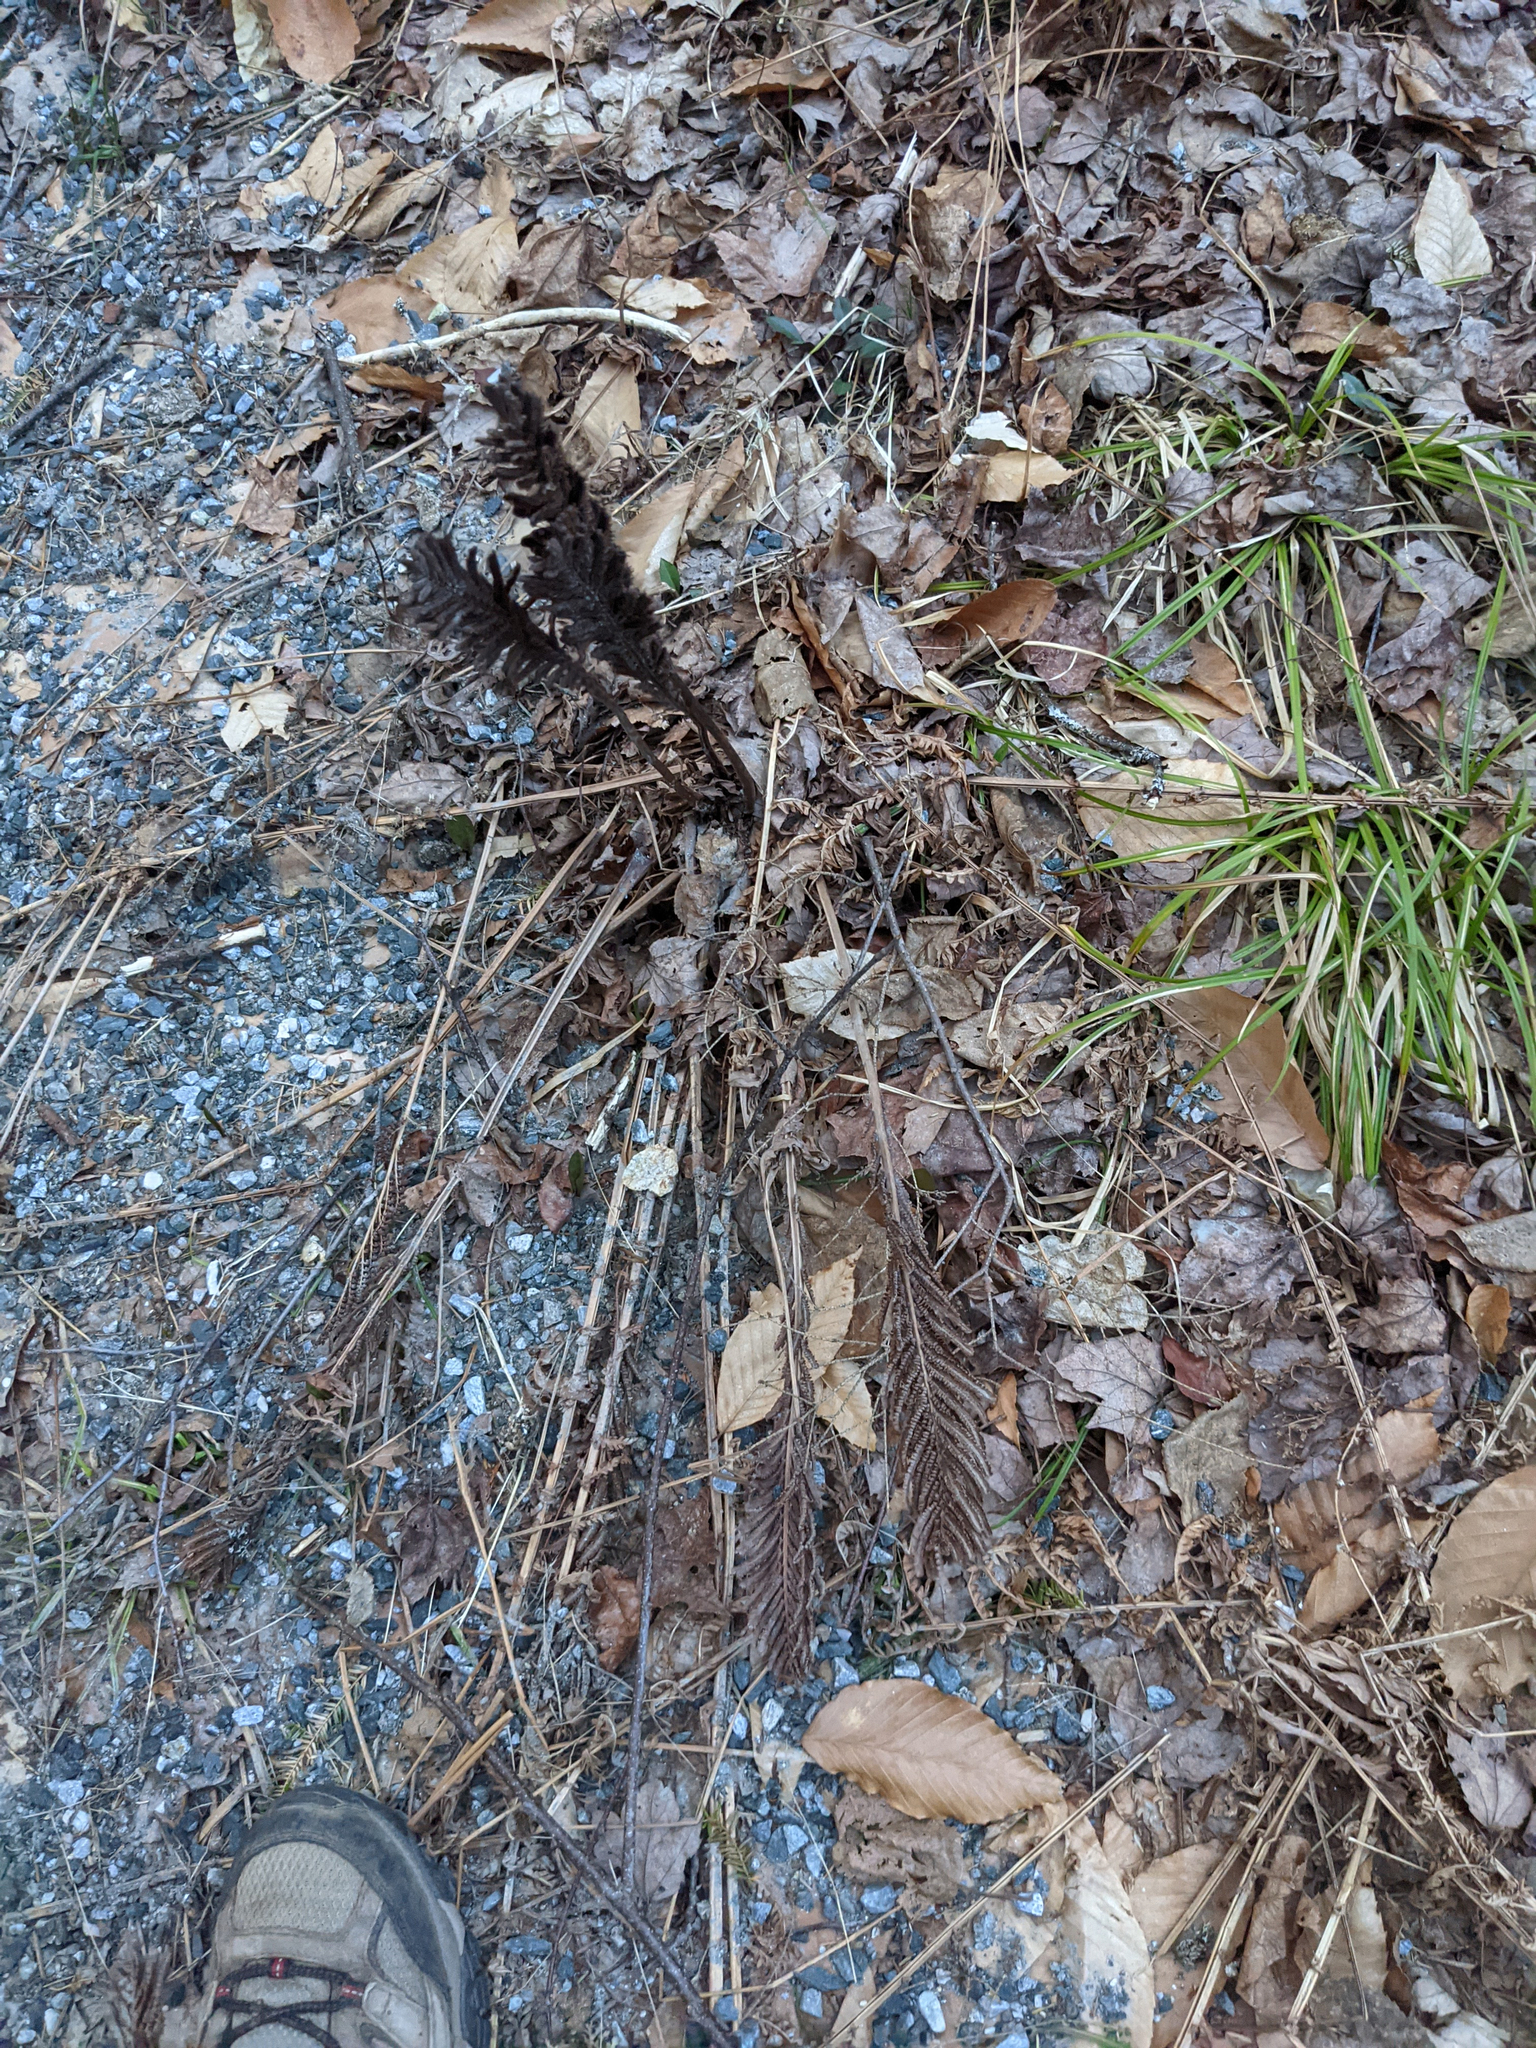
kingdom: Plantae
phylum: Tracheophyta
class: Polypodiopsida
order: Polypodiales
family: Onocleaceae
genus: Matteuccia
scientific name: Matteuccia struthiopteris
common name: Ostrich fern
